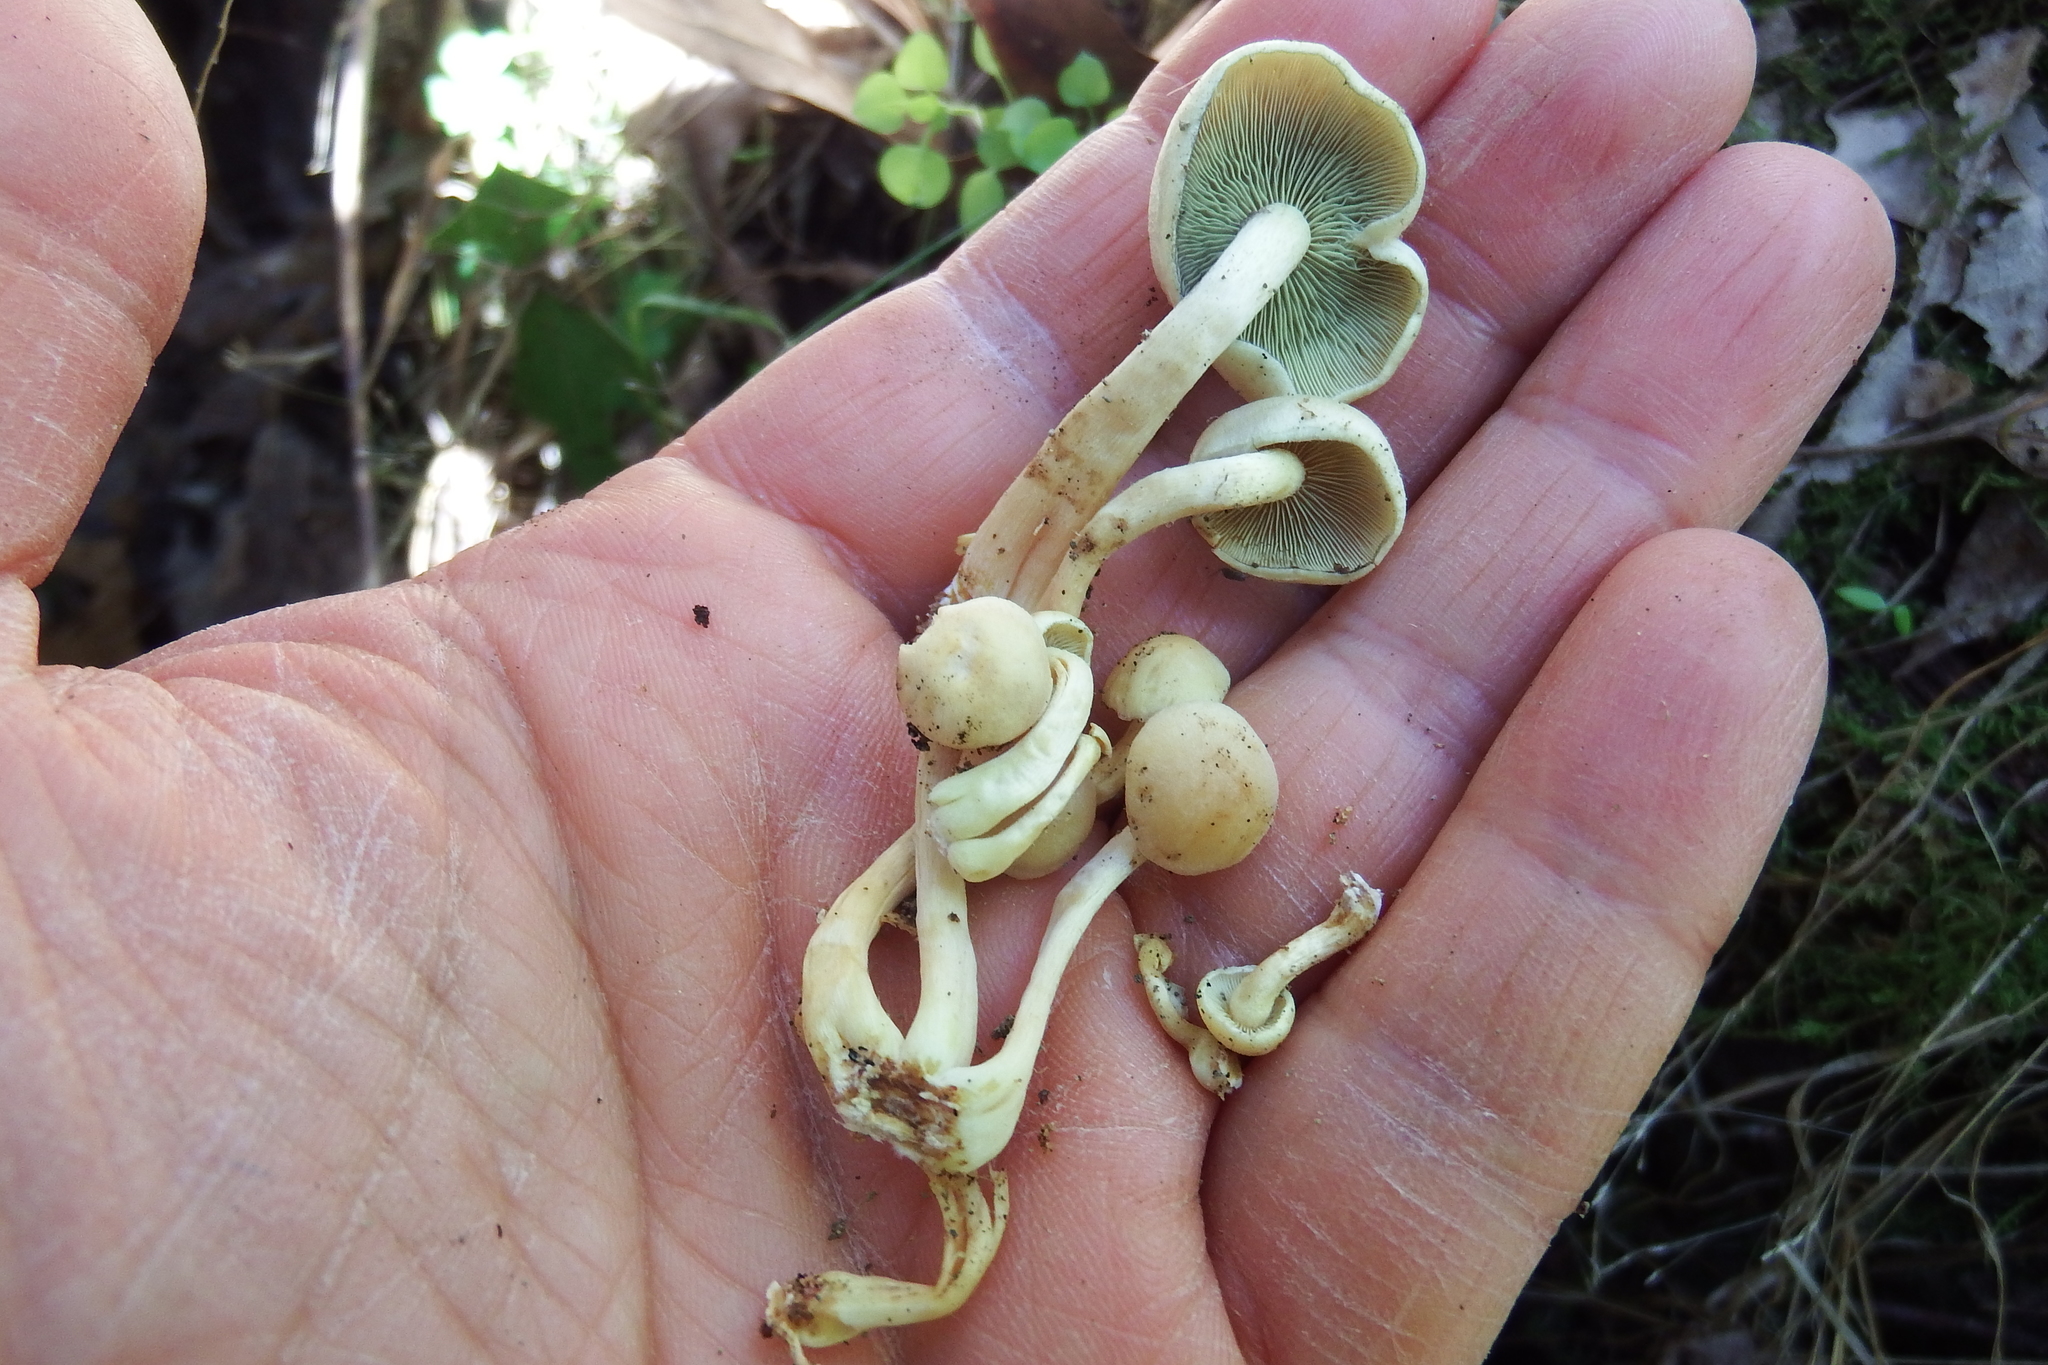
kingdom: Fungi
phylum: Basidiomycota
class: Agaricomycetes
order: Agaricales
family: Strophariaceae
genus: Hypholoma
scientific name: Hypholoma fasciculare
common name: Sulphur tuft
